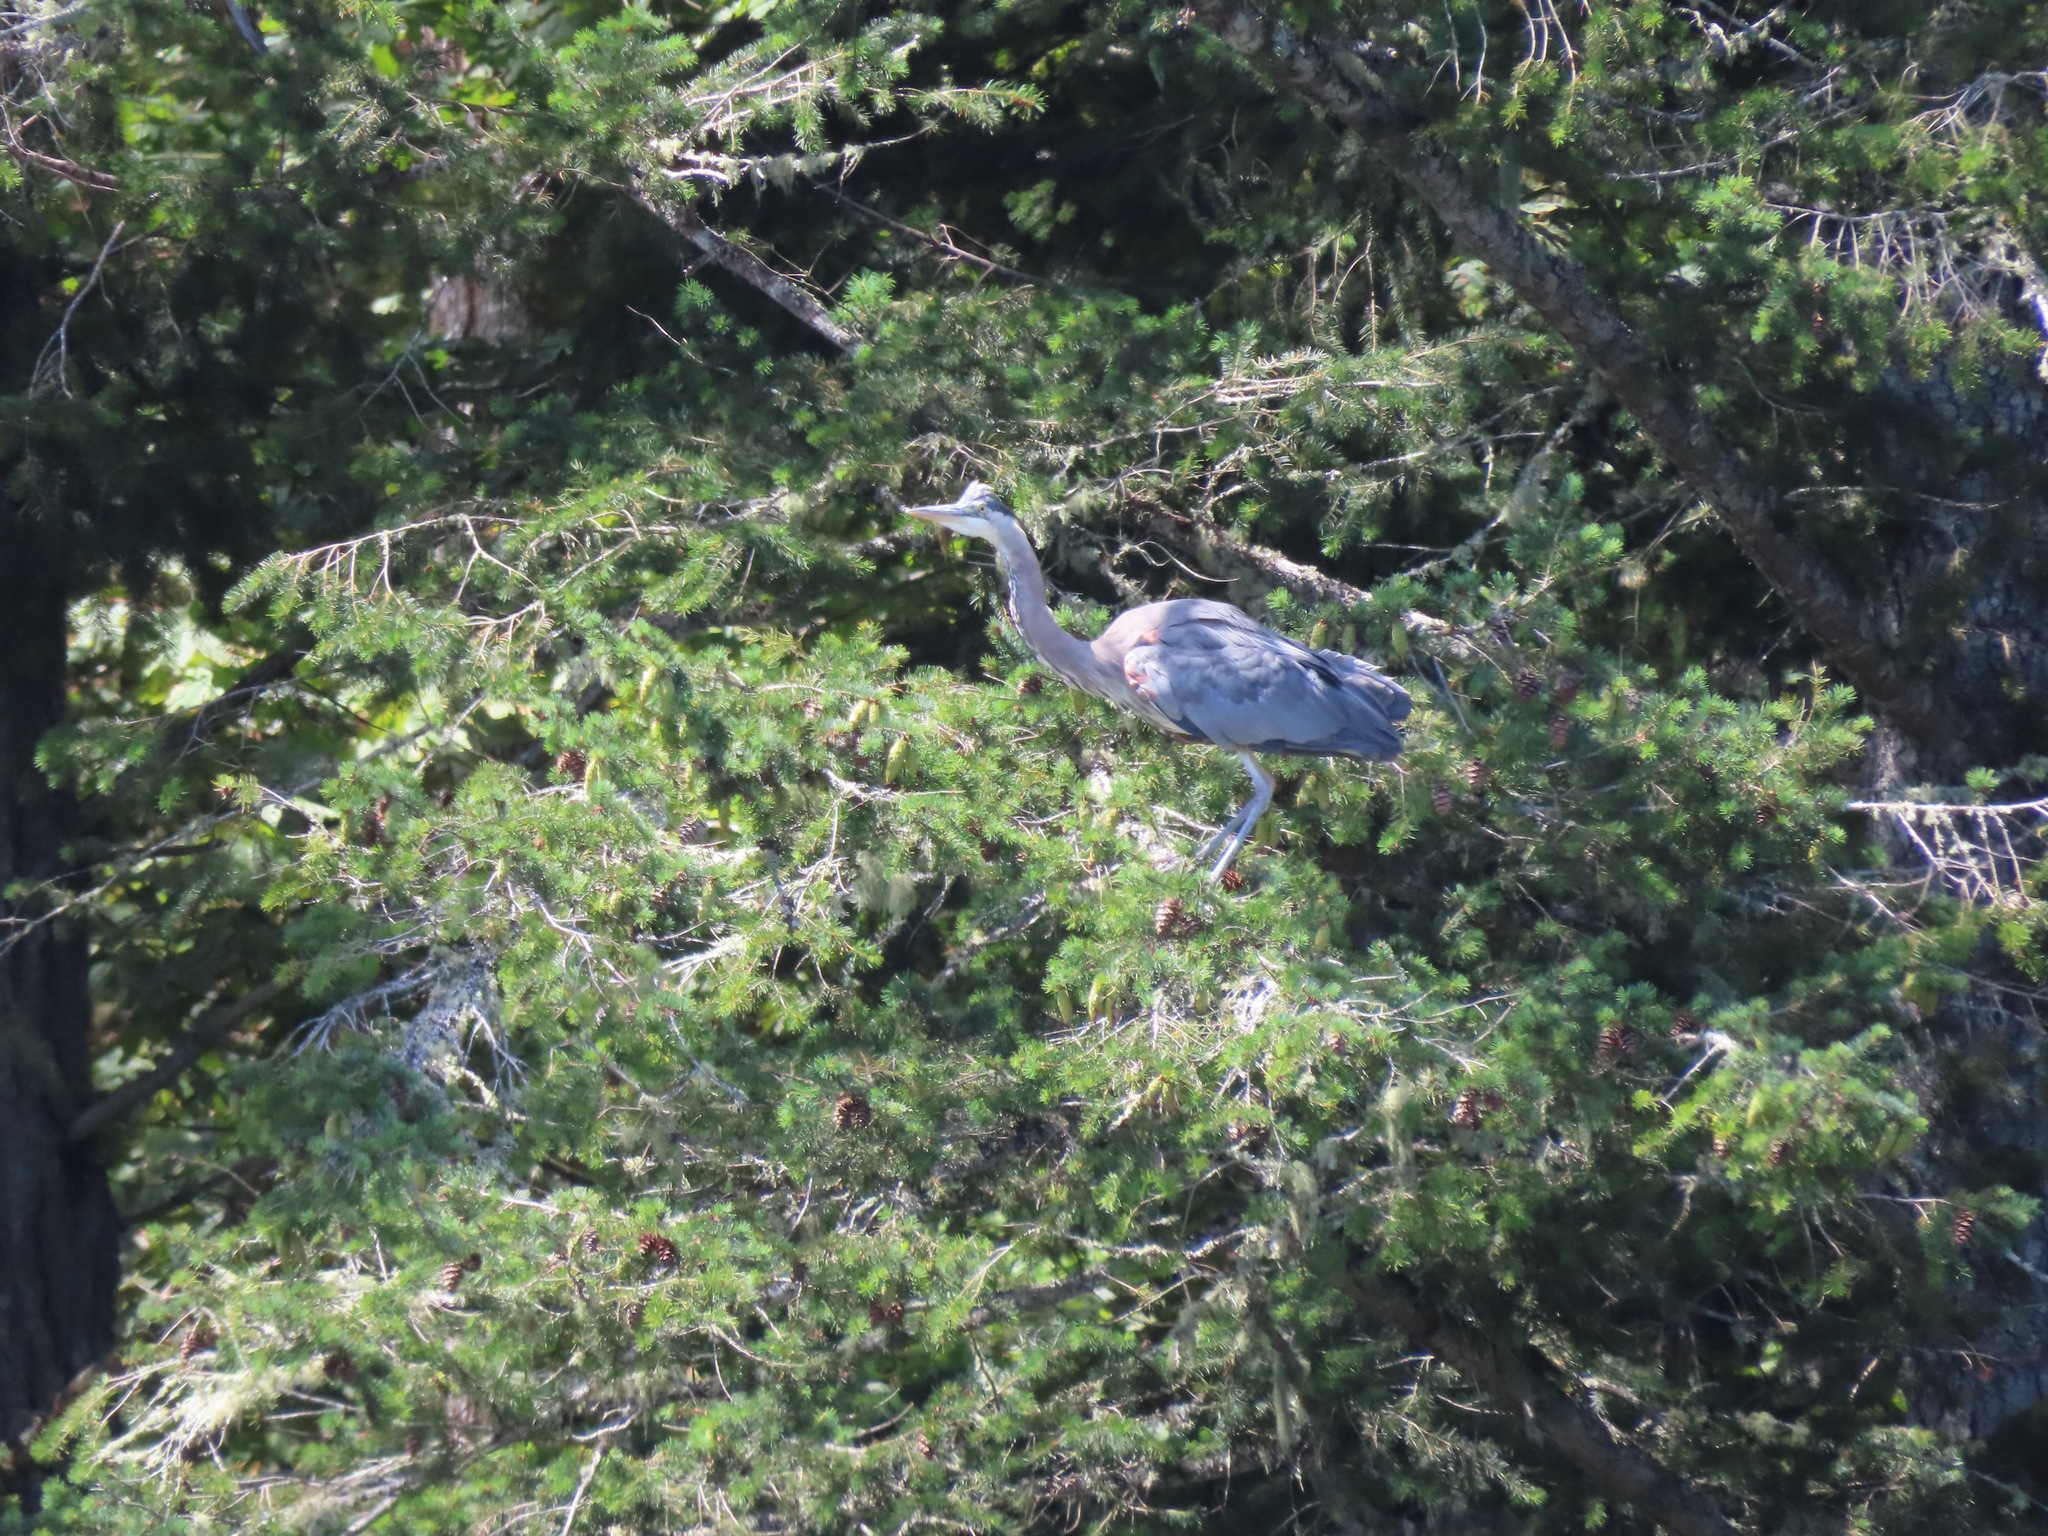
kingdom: Animalia
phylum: Chordata
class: Aves
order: Pelecaniformes
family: Ardeidae
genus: Ardea
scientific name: Ardea herodias
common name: Great blue heron
